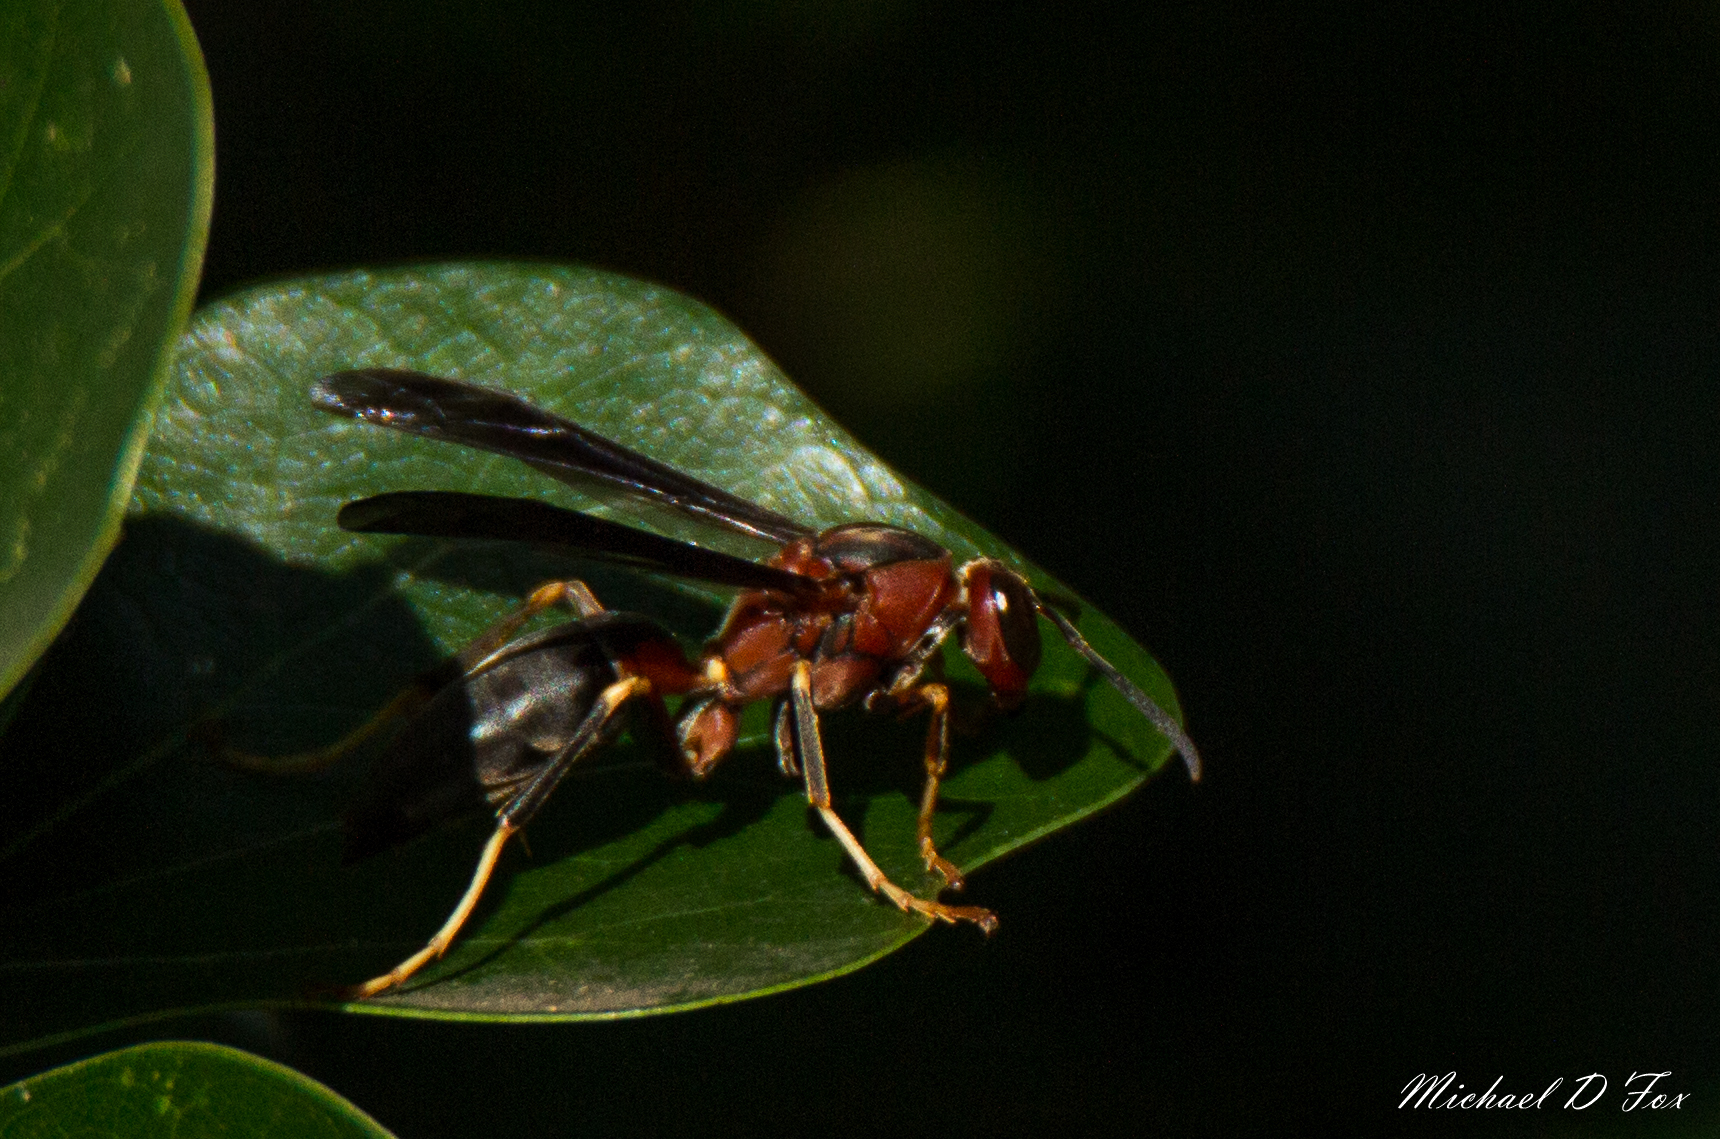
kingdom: Animalia
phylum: Arthropoda
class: Insecta
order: Hymenoptera
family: Eumenidae
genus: Polistes
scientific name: Polistes metricus
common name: Metric paper wasp
